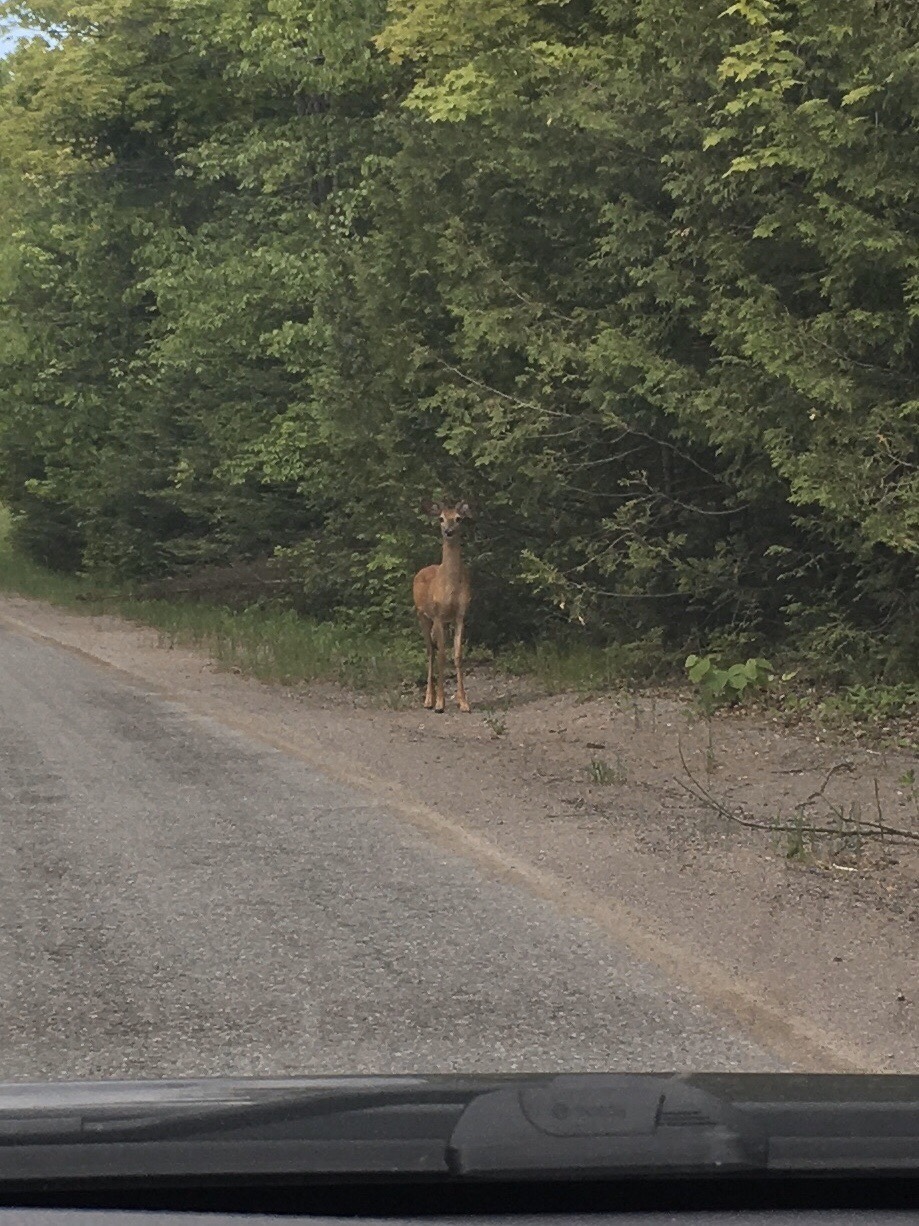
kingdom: Animalia
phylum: Chordata
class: Mammalia
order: Artiodactyla
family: Cervidae
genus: Odocoileus
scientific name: Odocoileus virginianus
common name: White-tailed deer
